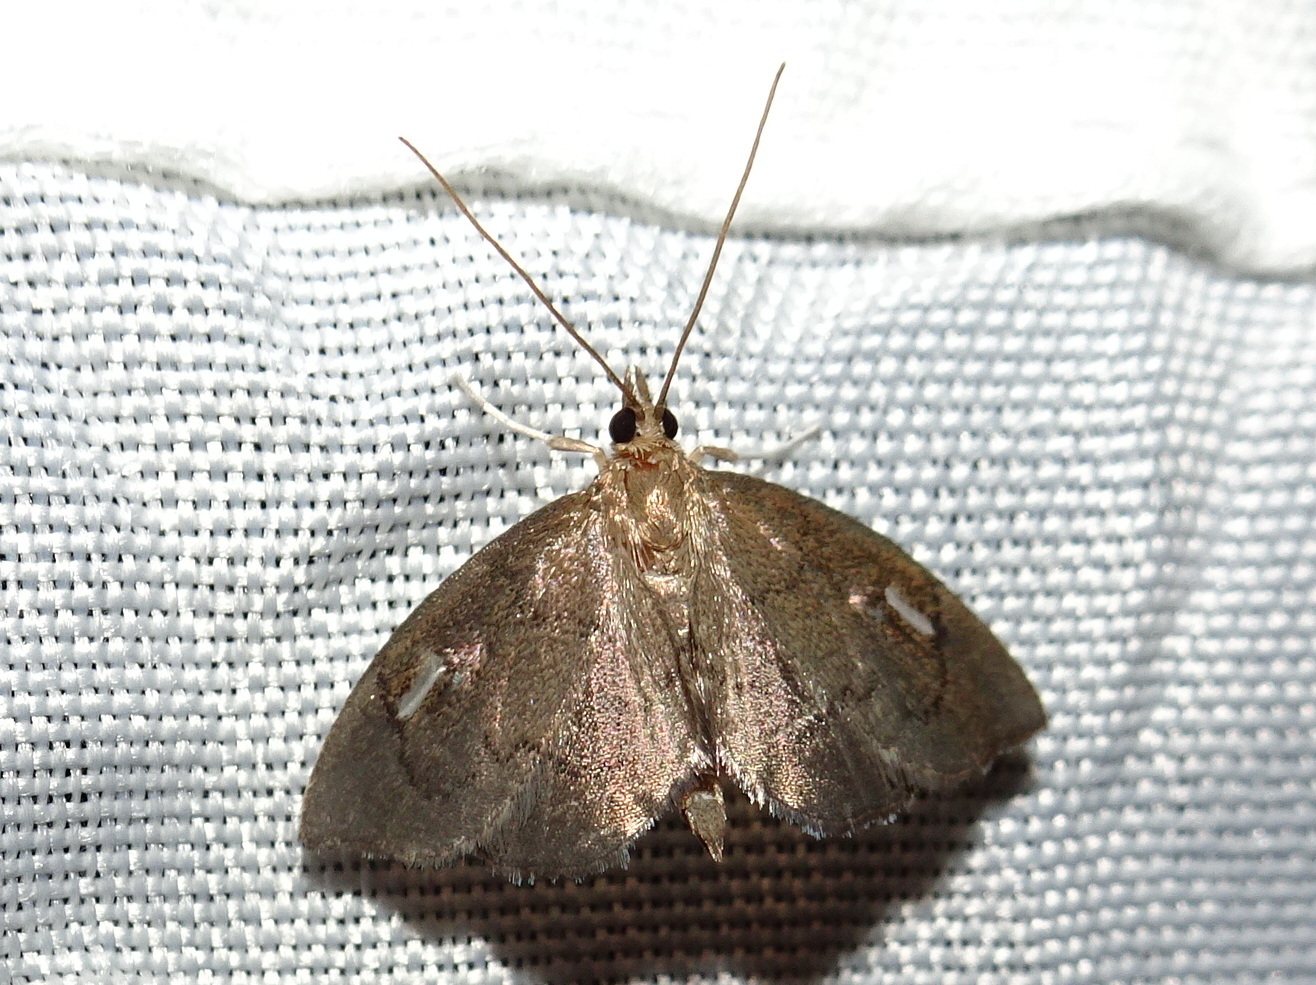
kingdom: Animalia
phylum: Arthropoda
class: Insecta
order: Lepidoptera
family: Crambidae
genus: Perispasta
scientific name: Perispasta caeculalis
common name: Titian peale's moth
